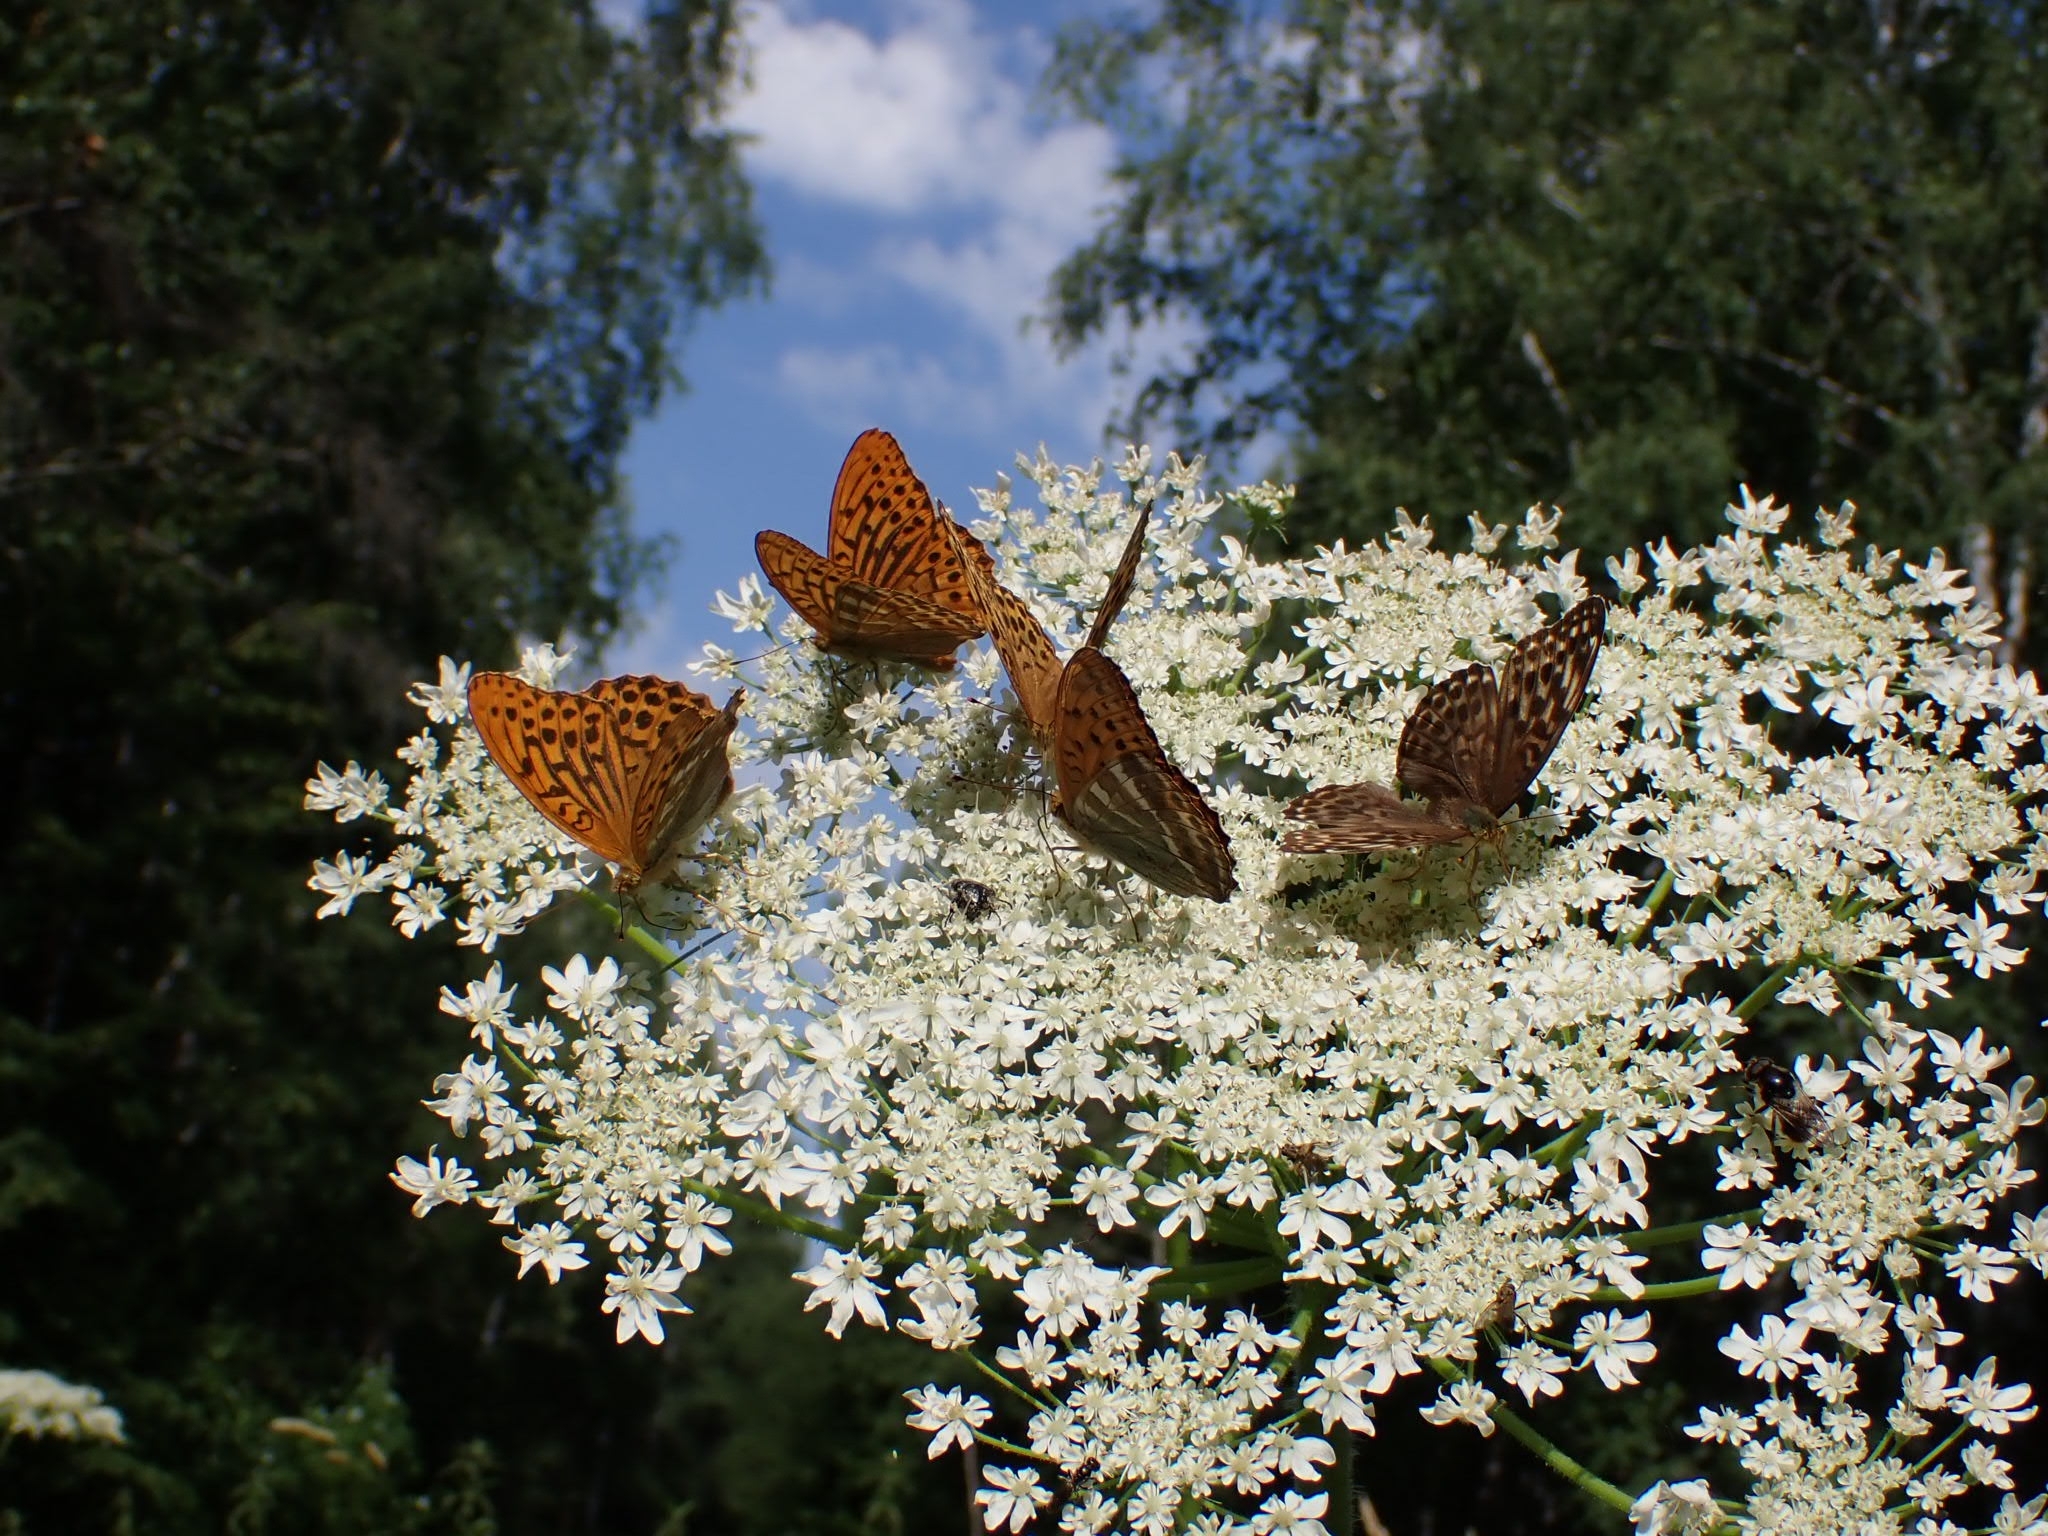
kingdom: Animalia
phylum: Arthropoda
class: Insecta
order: Lepidoptera
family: Nymphalidae
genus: Argynnis
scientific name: Argynnis paphia
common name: Silver-washed fritillary
